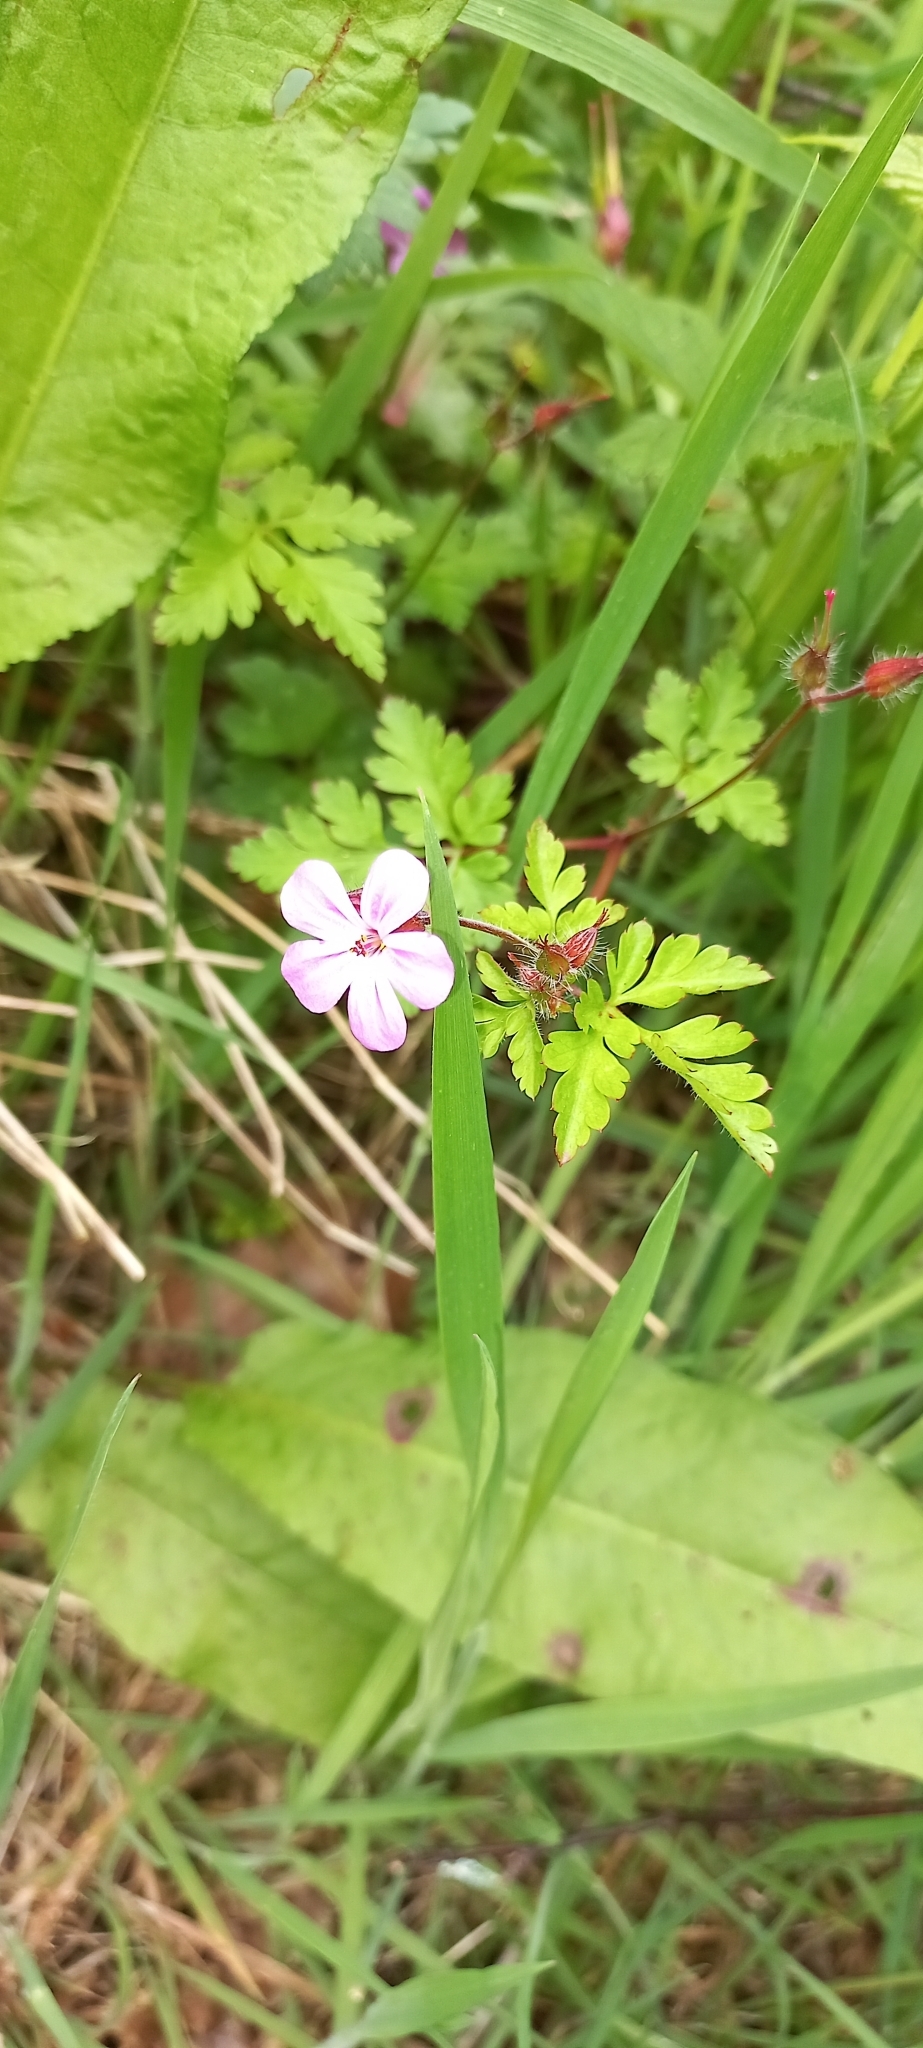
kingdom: Plantae
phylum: Tracheophyta
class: Magnoliopsida
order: Geraniales
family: Geraniaceae
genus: Geranium
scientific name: Geranium robertianum
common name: Herb-robert
